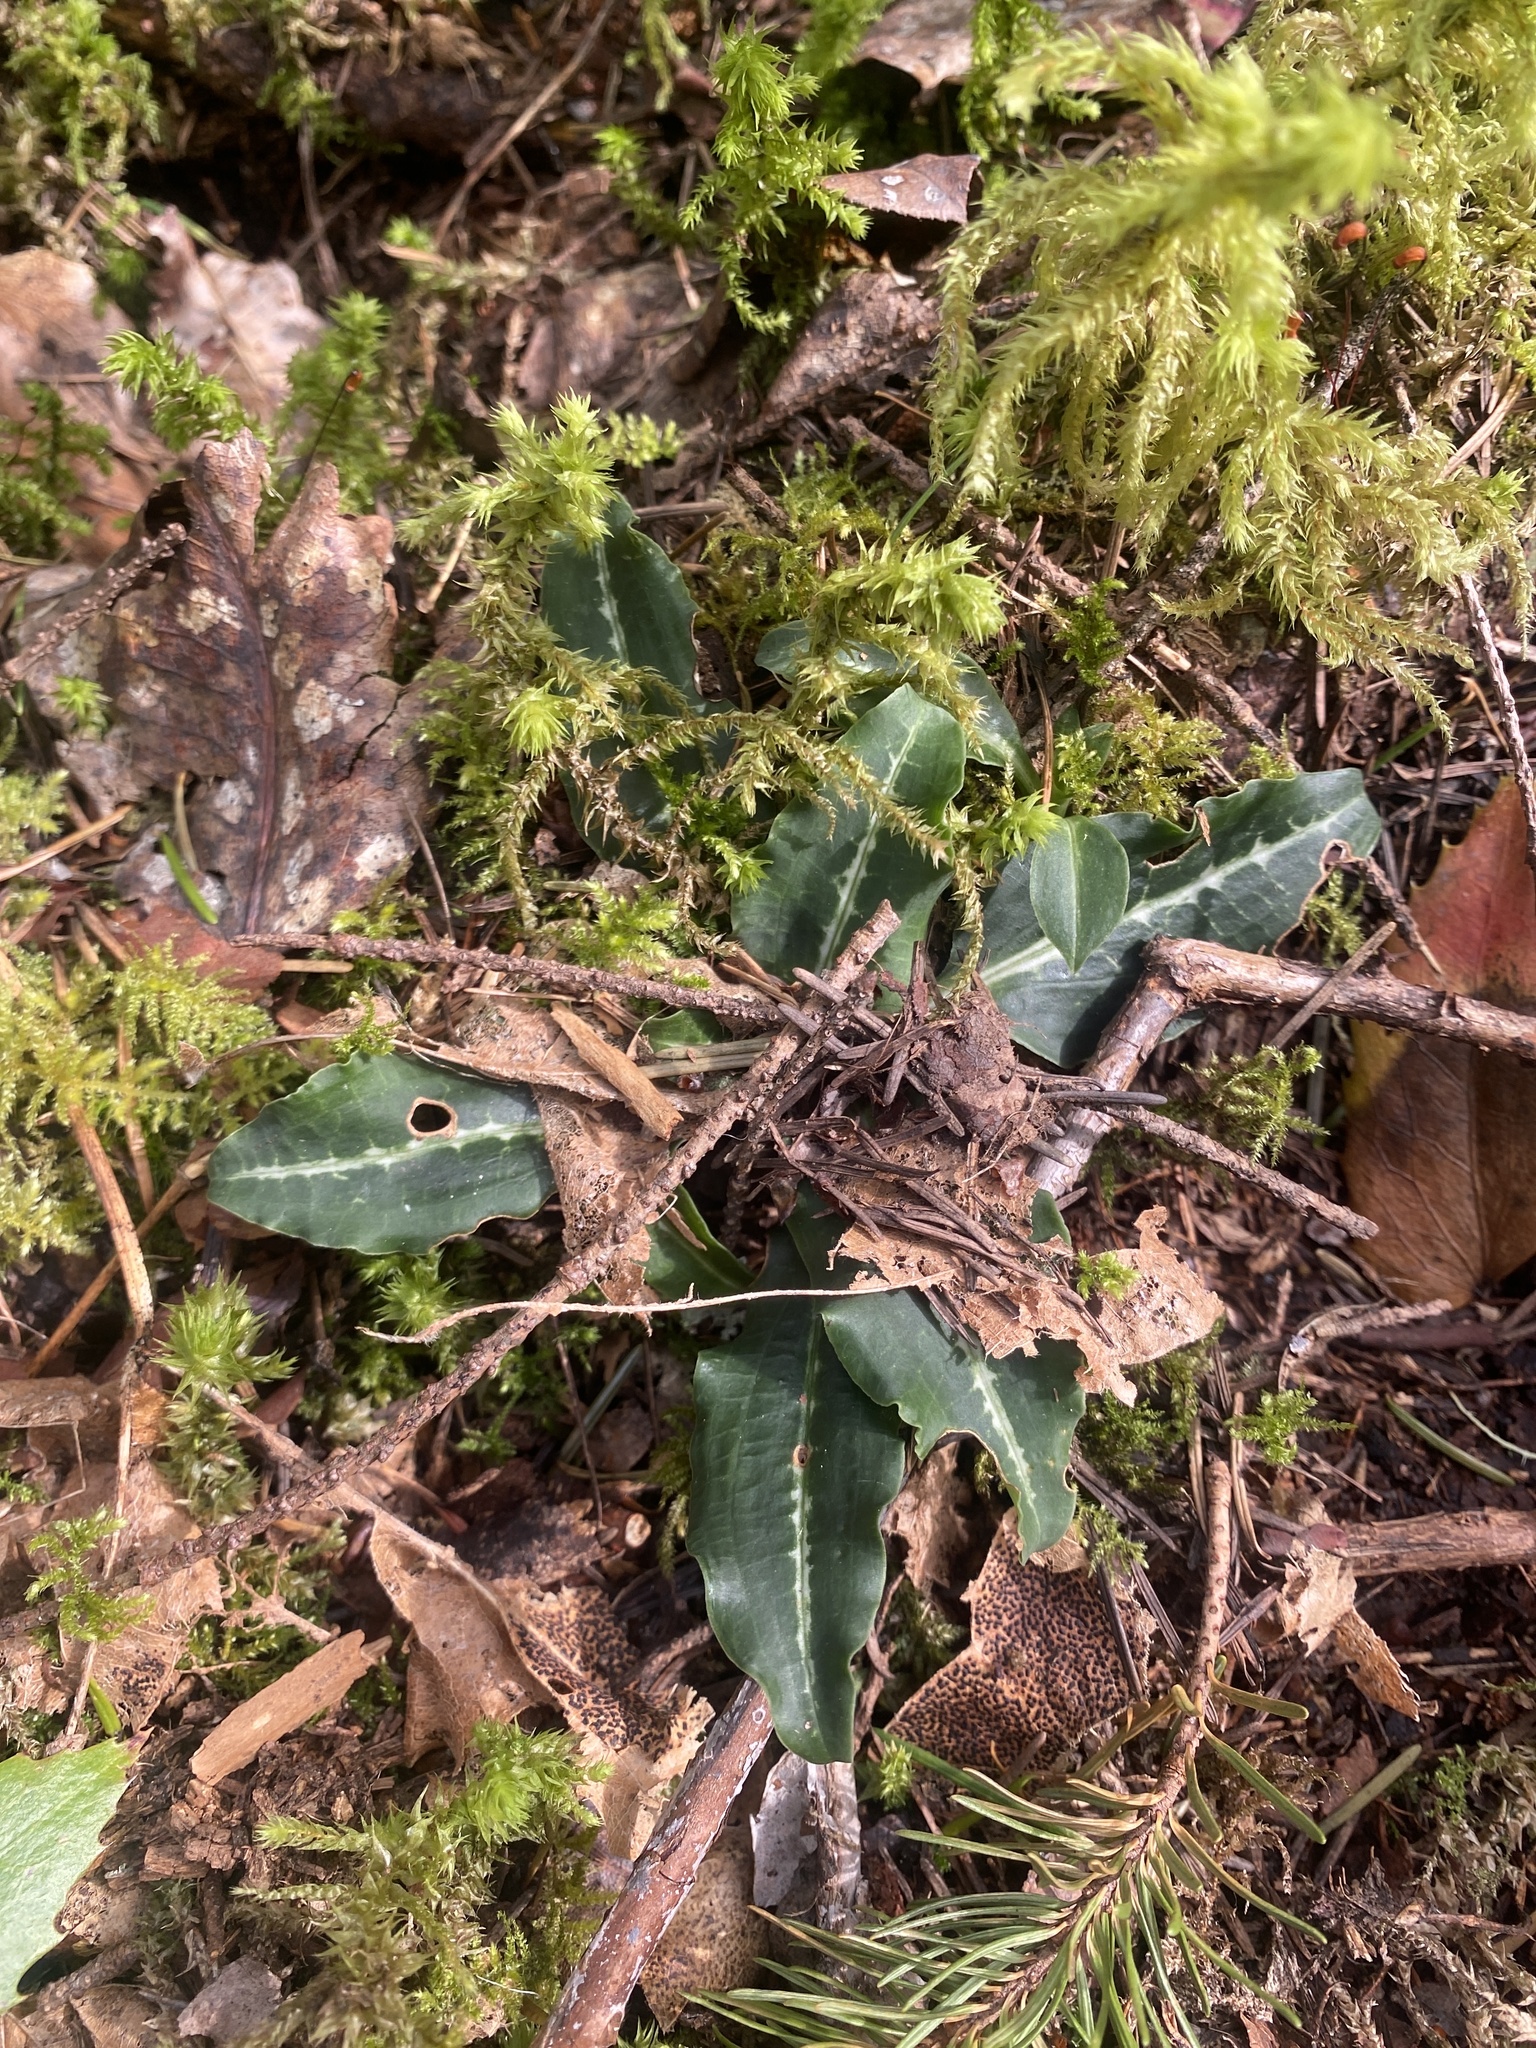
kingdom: Plantae
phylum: Tracheophyta
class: Liliopsida
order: Asparagales
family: Orchidaceae
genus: Goodyera
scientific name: Goodyera oblongifolia
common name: Giant rattlesnake-plantain
